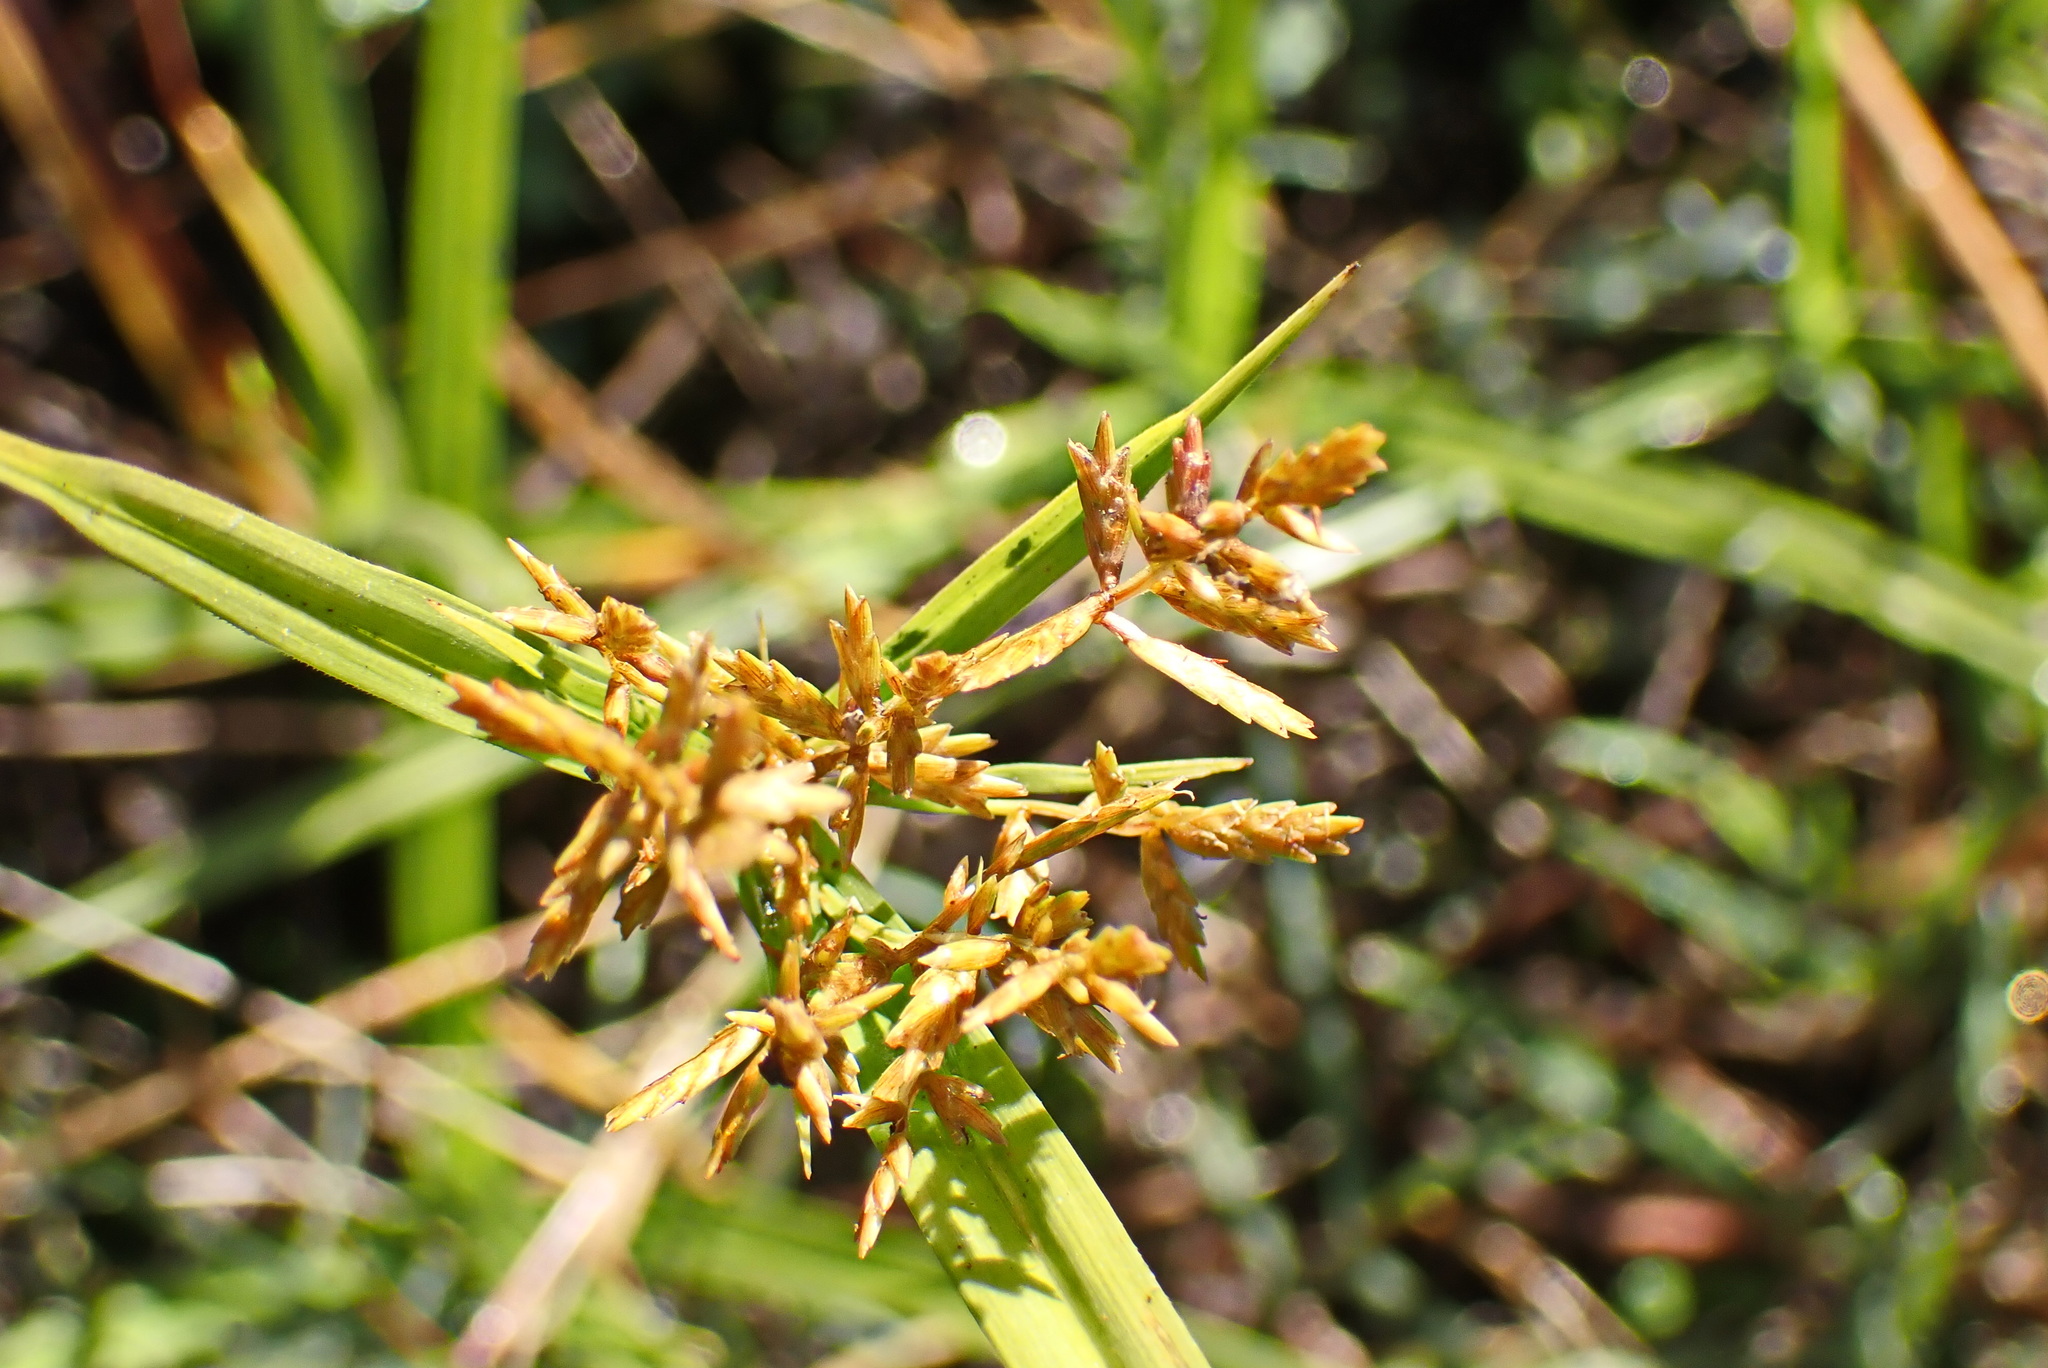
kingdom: Plantae
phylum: Tracheophyta
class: Liliopsida
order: Poales
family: Cyperaceae
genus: Cyperus
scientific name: Cyperus polystachyos
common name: Bunchy flat sedge
